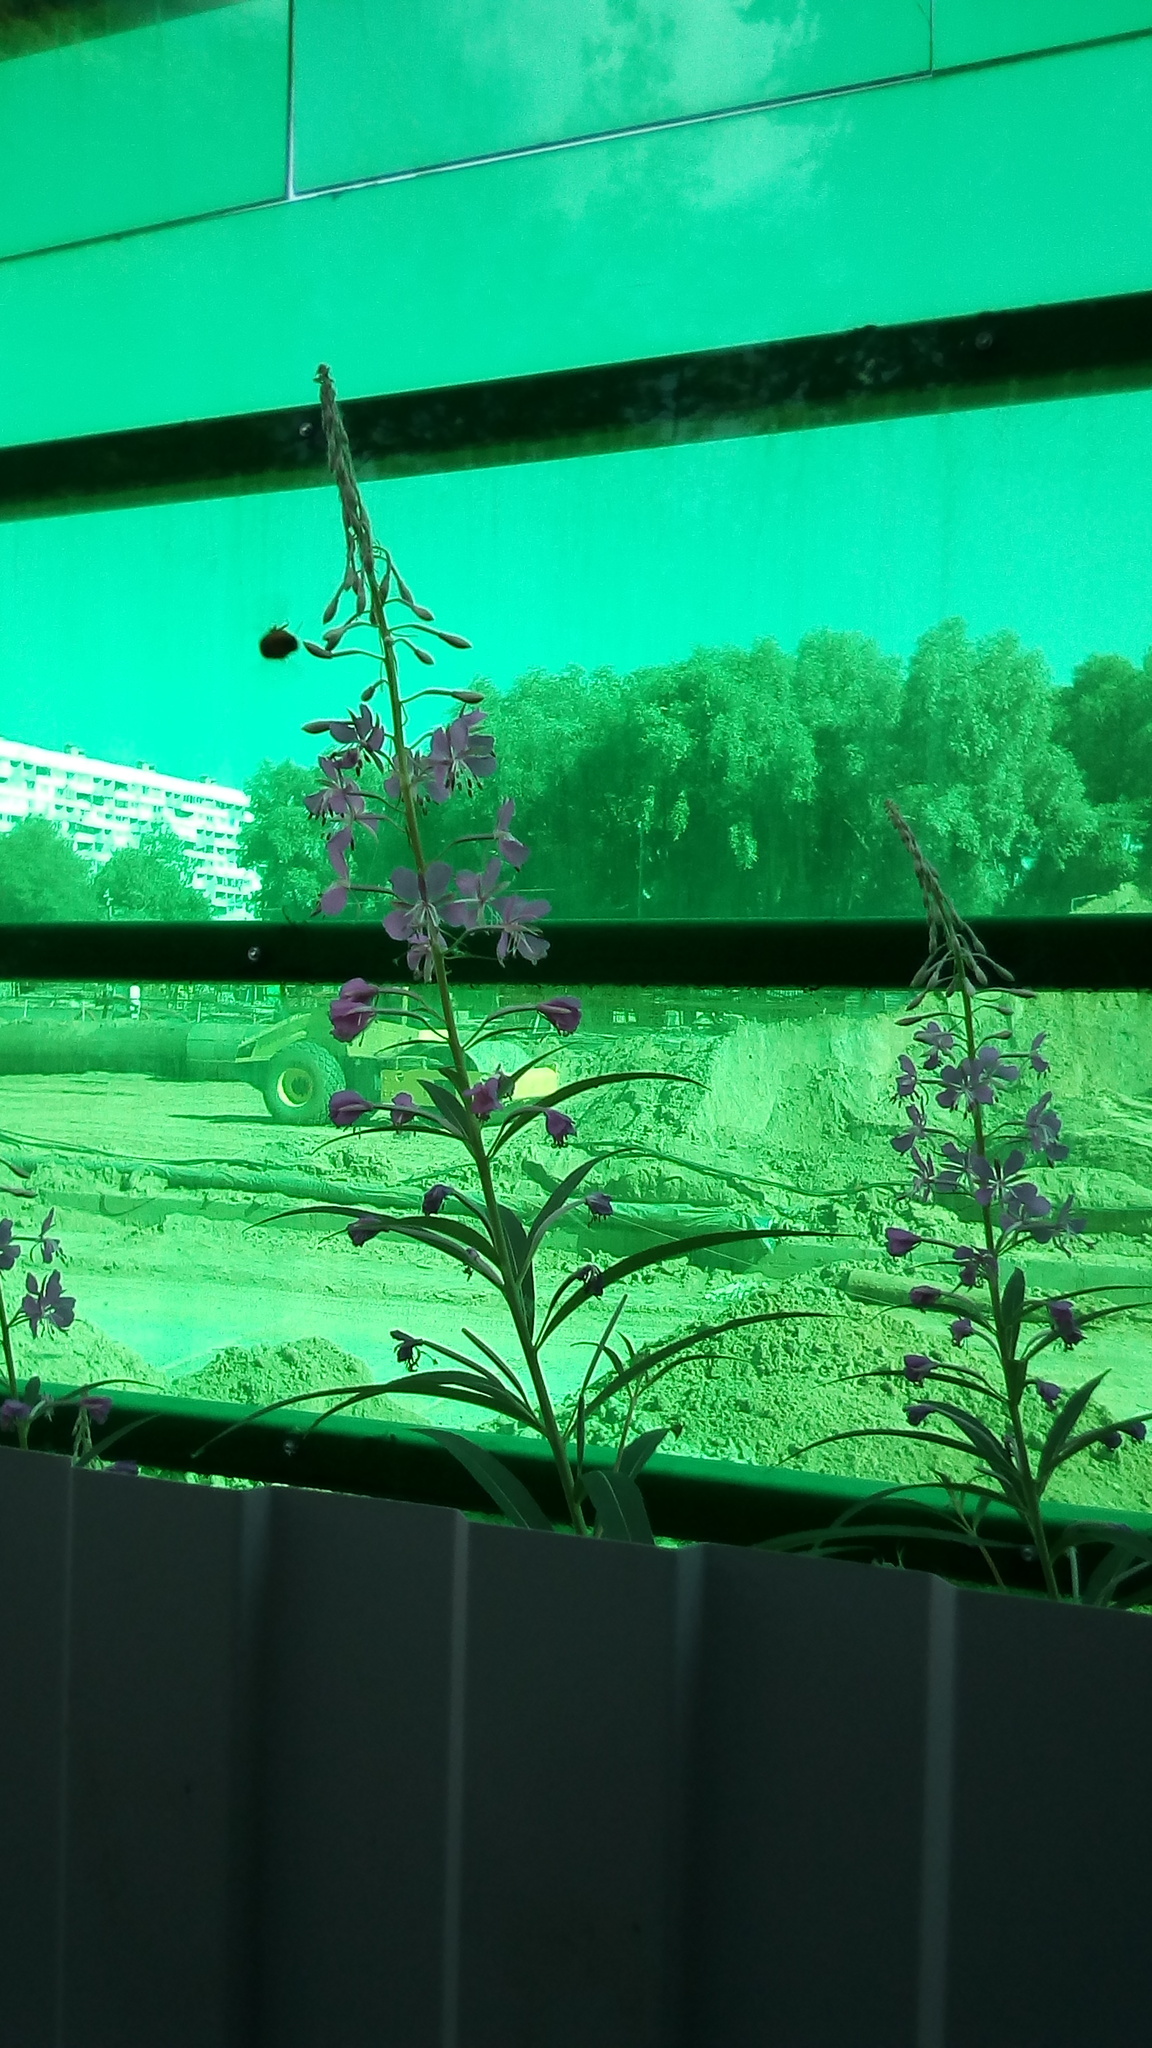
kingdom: Plantae
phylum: Tracheophyta
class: Magnoliopsida
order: Myrtales
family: Onagraceae
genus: Chamaenerion
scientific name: Chamaenerion angustifolium
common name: Fireweed
